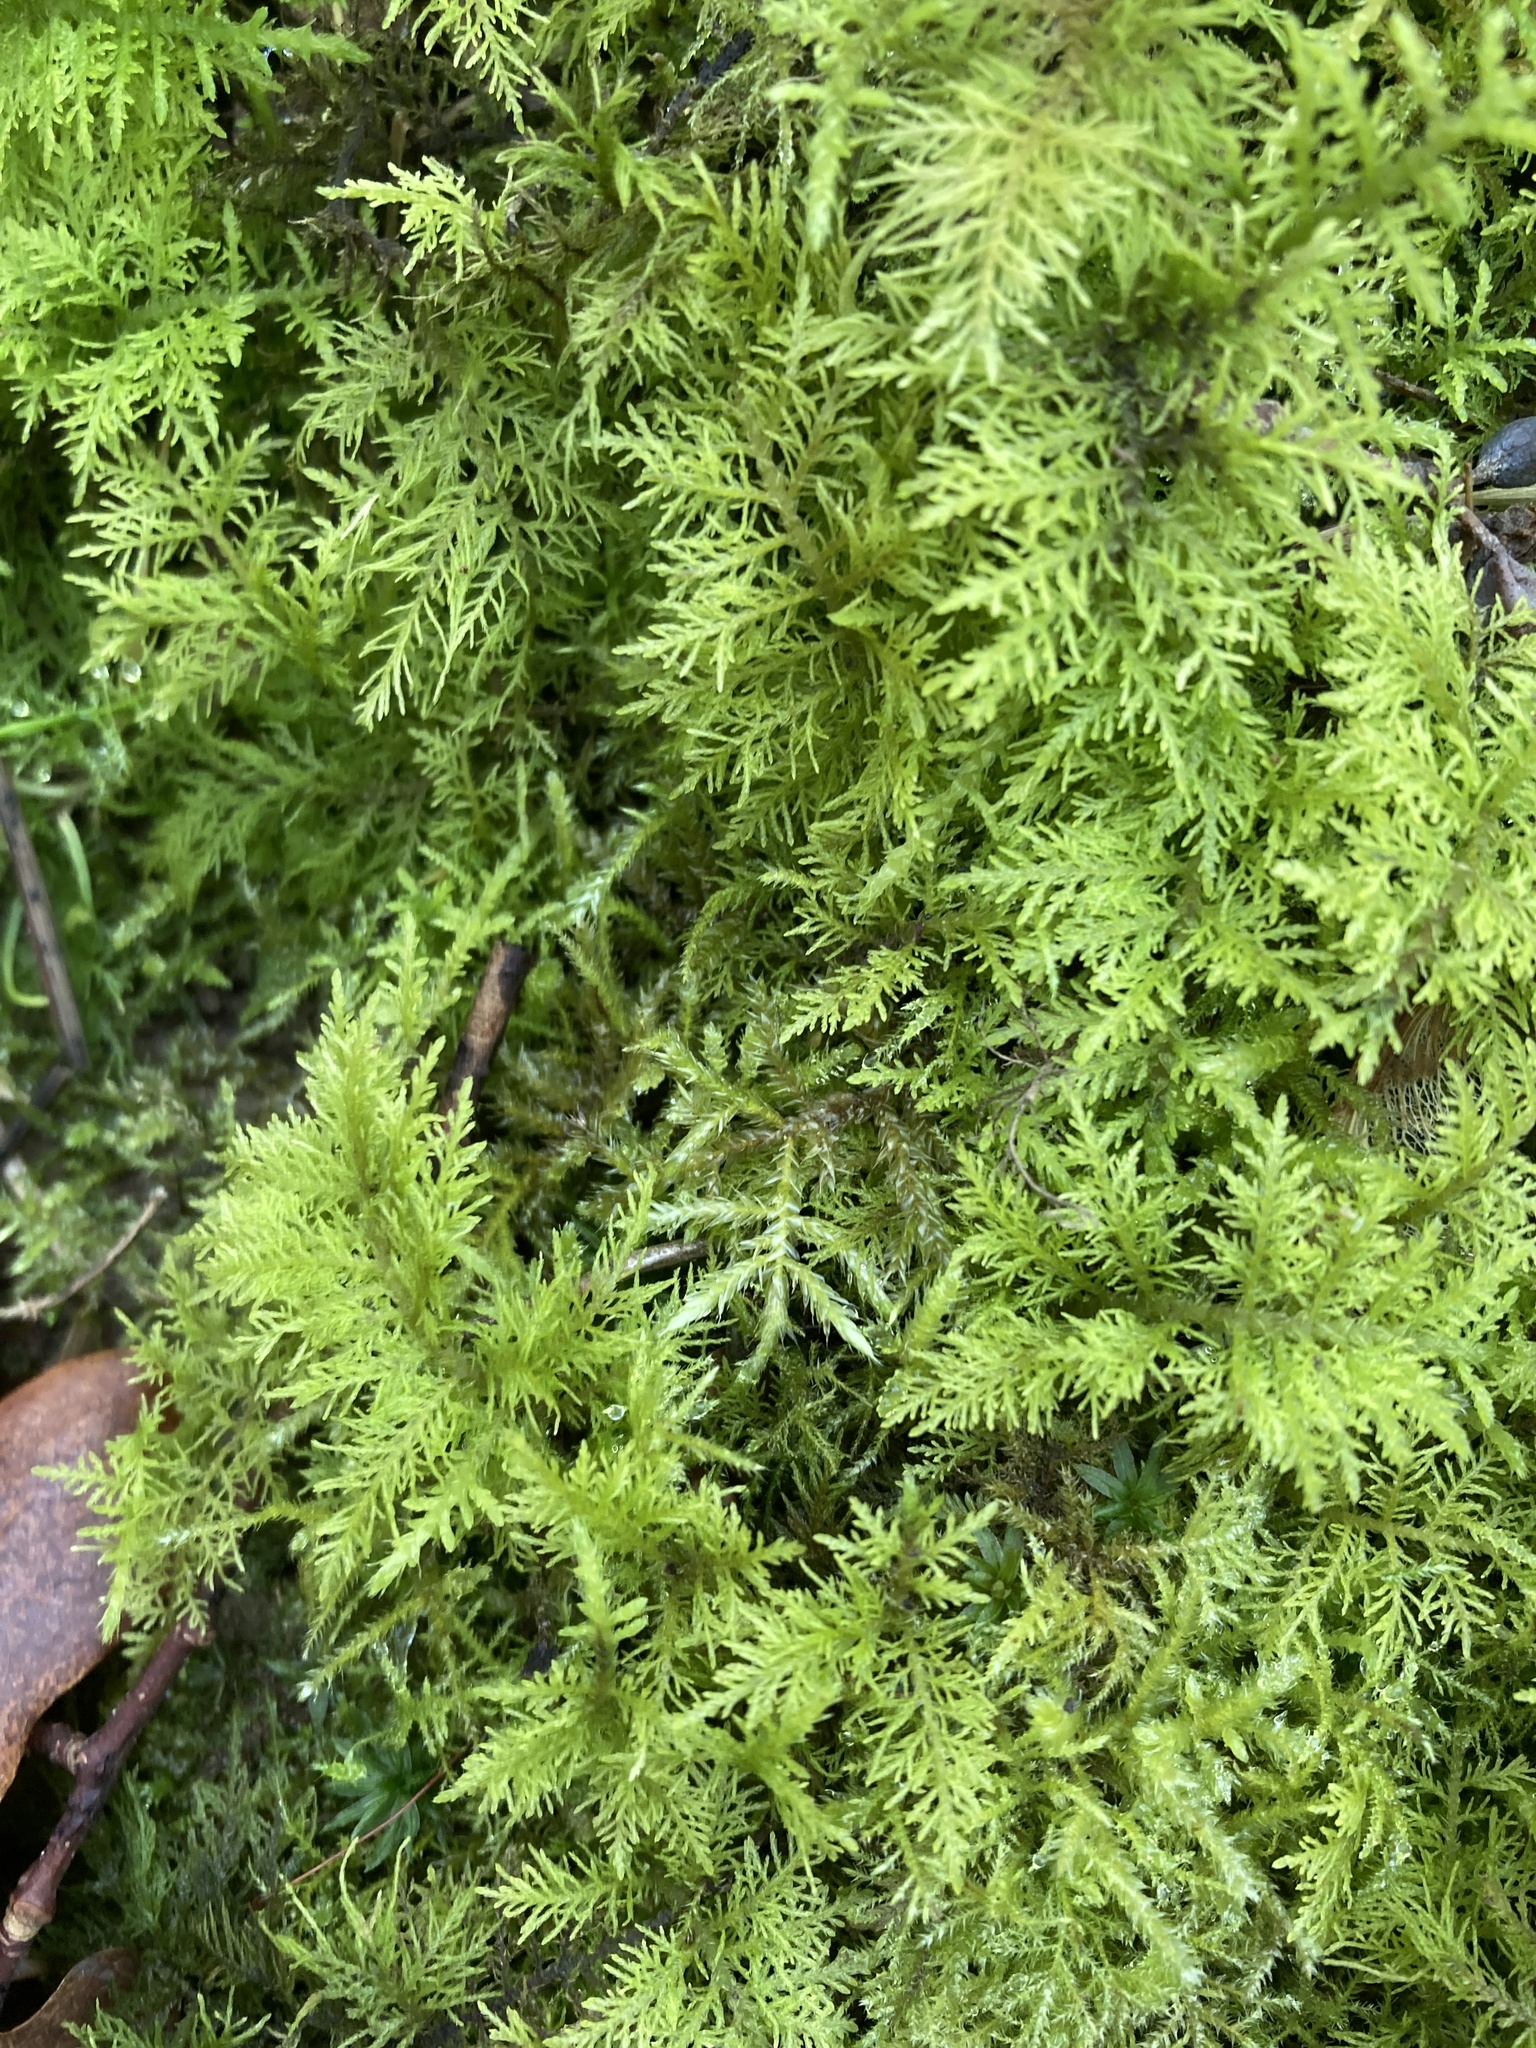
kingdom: Plantae
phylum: Bryophyta
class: Bryopsida
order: Hypnales
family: Thuidiaceae
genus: Thuidium
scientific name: Thuidium tamariscinum
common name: Common tamarisk-moss
